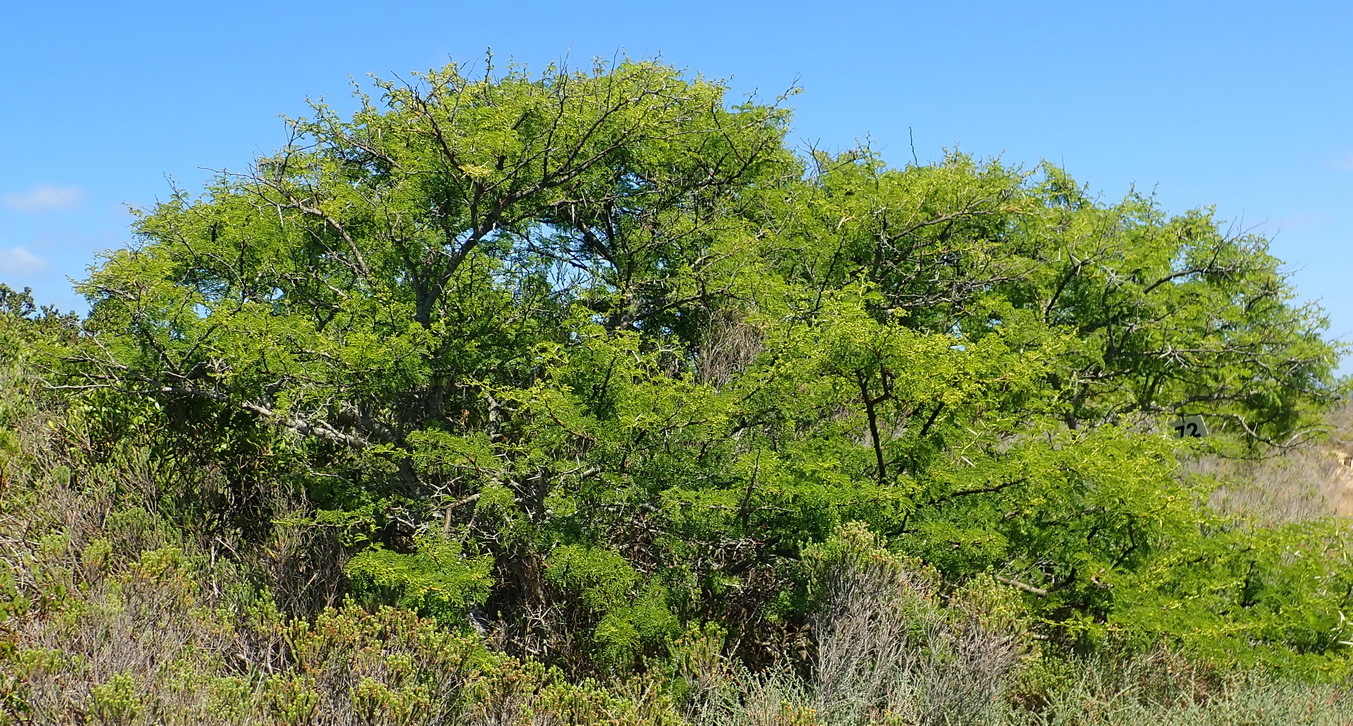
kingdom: Plantae
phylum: Tracheophyta
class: Magnoliopsida
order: Fabales
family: Fabaceae
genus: Vachellia
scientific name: Vachellia karroo
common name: Sweet thorn
